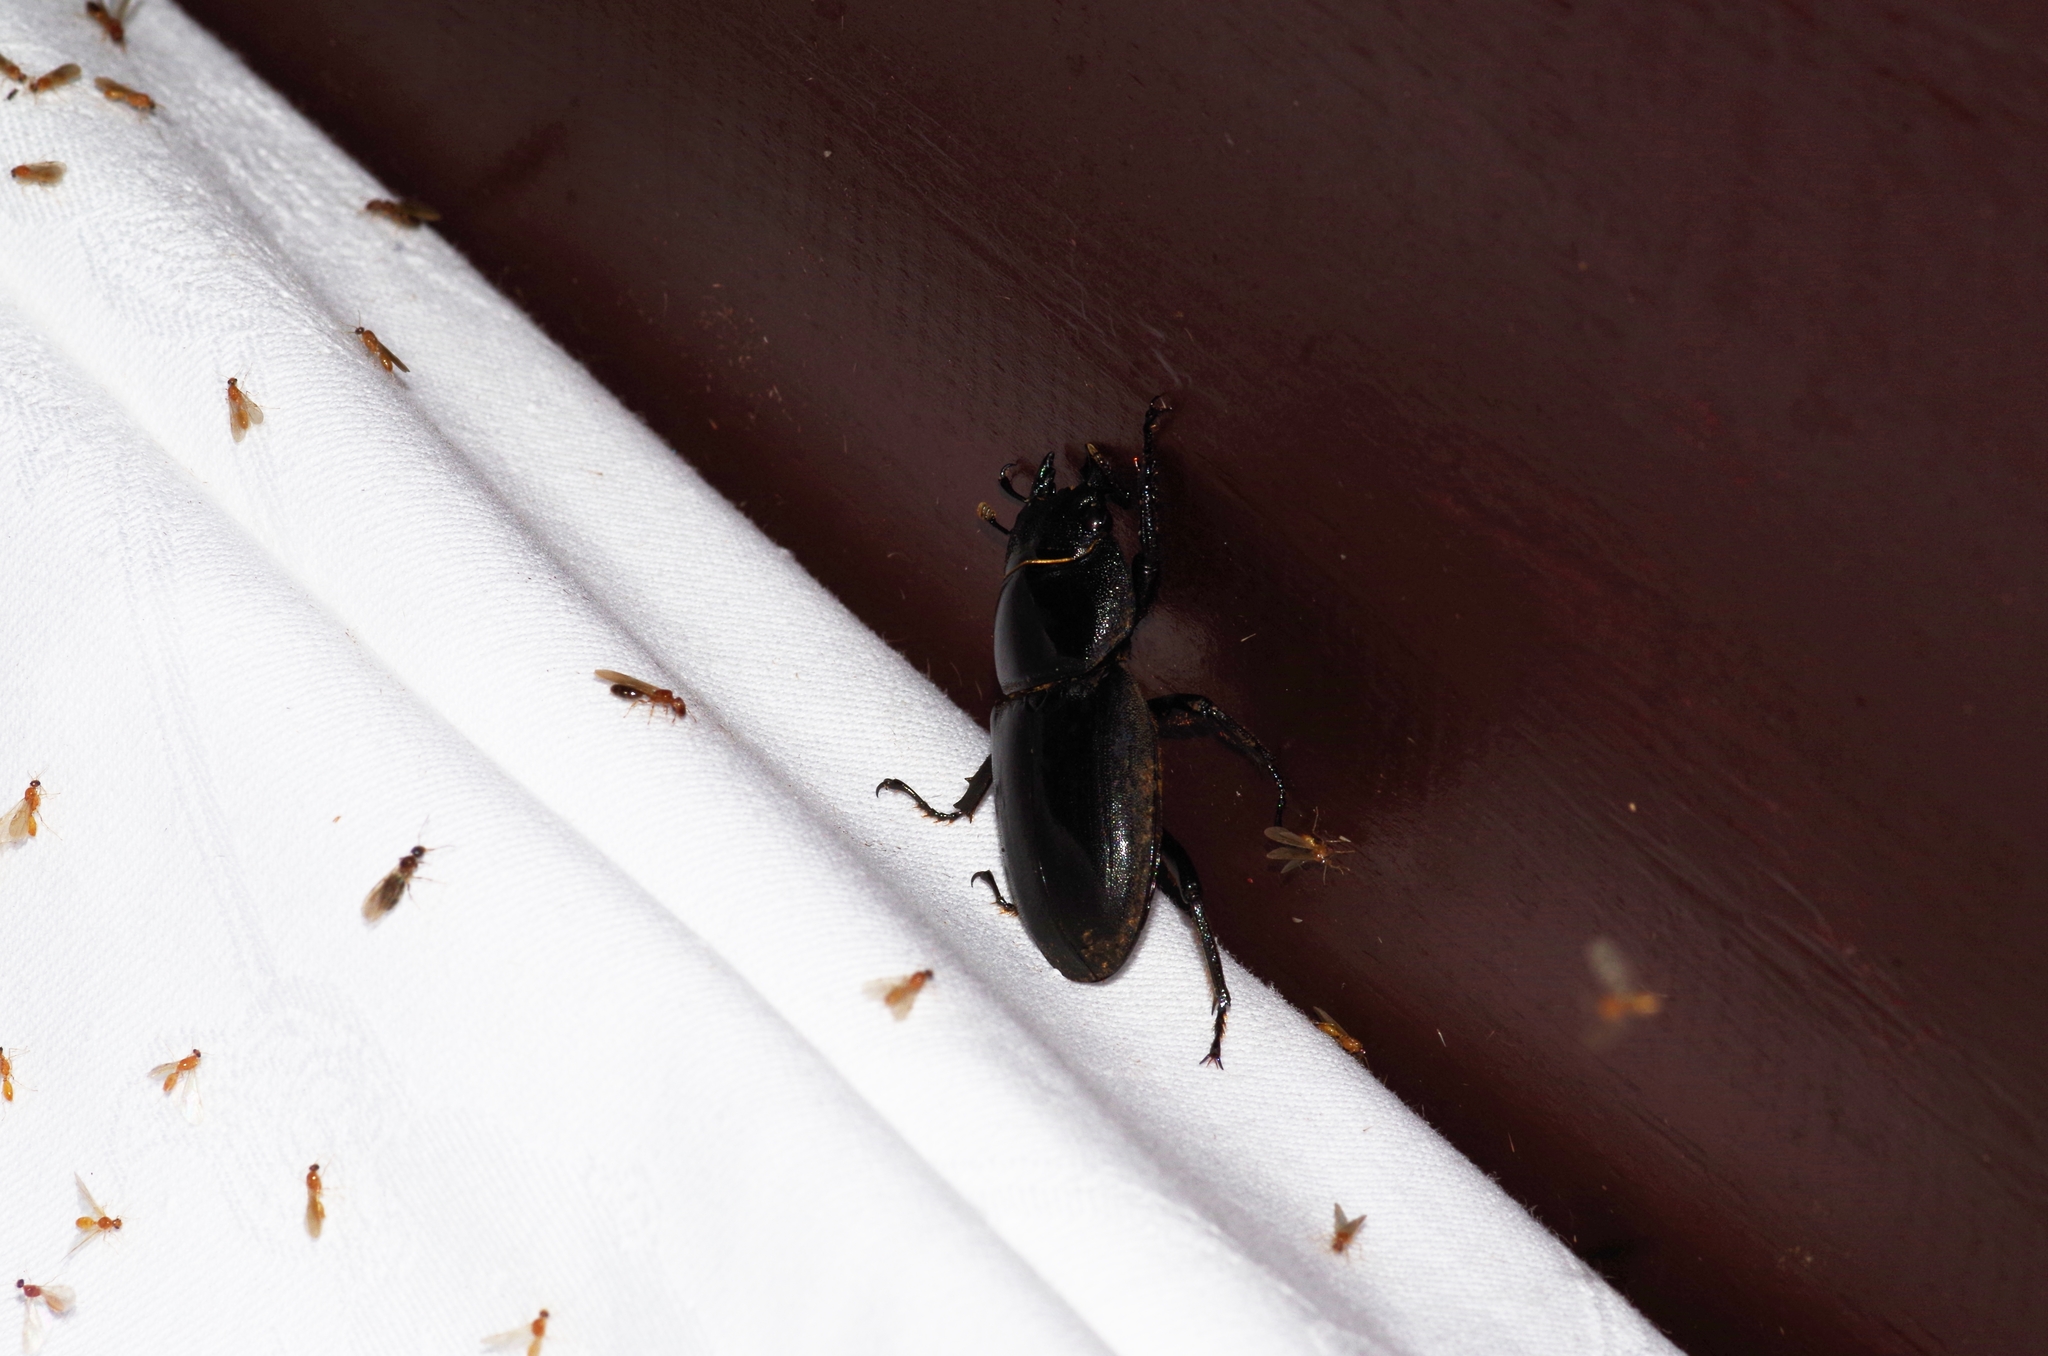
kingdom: Animalia
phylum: Arthropoda
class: Insecta
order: Coleoptera
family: Lucanidae
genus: Serrognathus
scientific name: Serrognathus titanus
